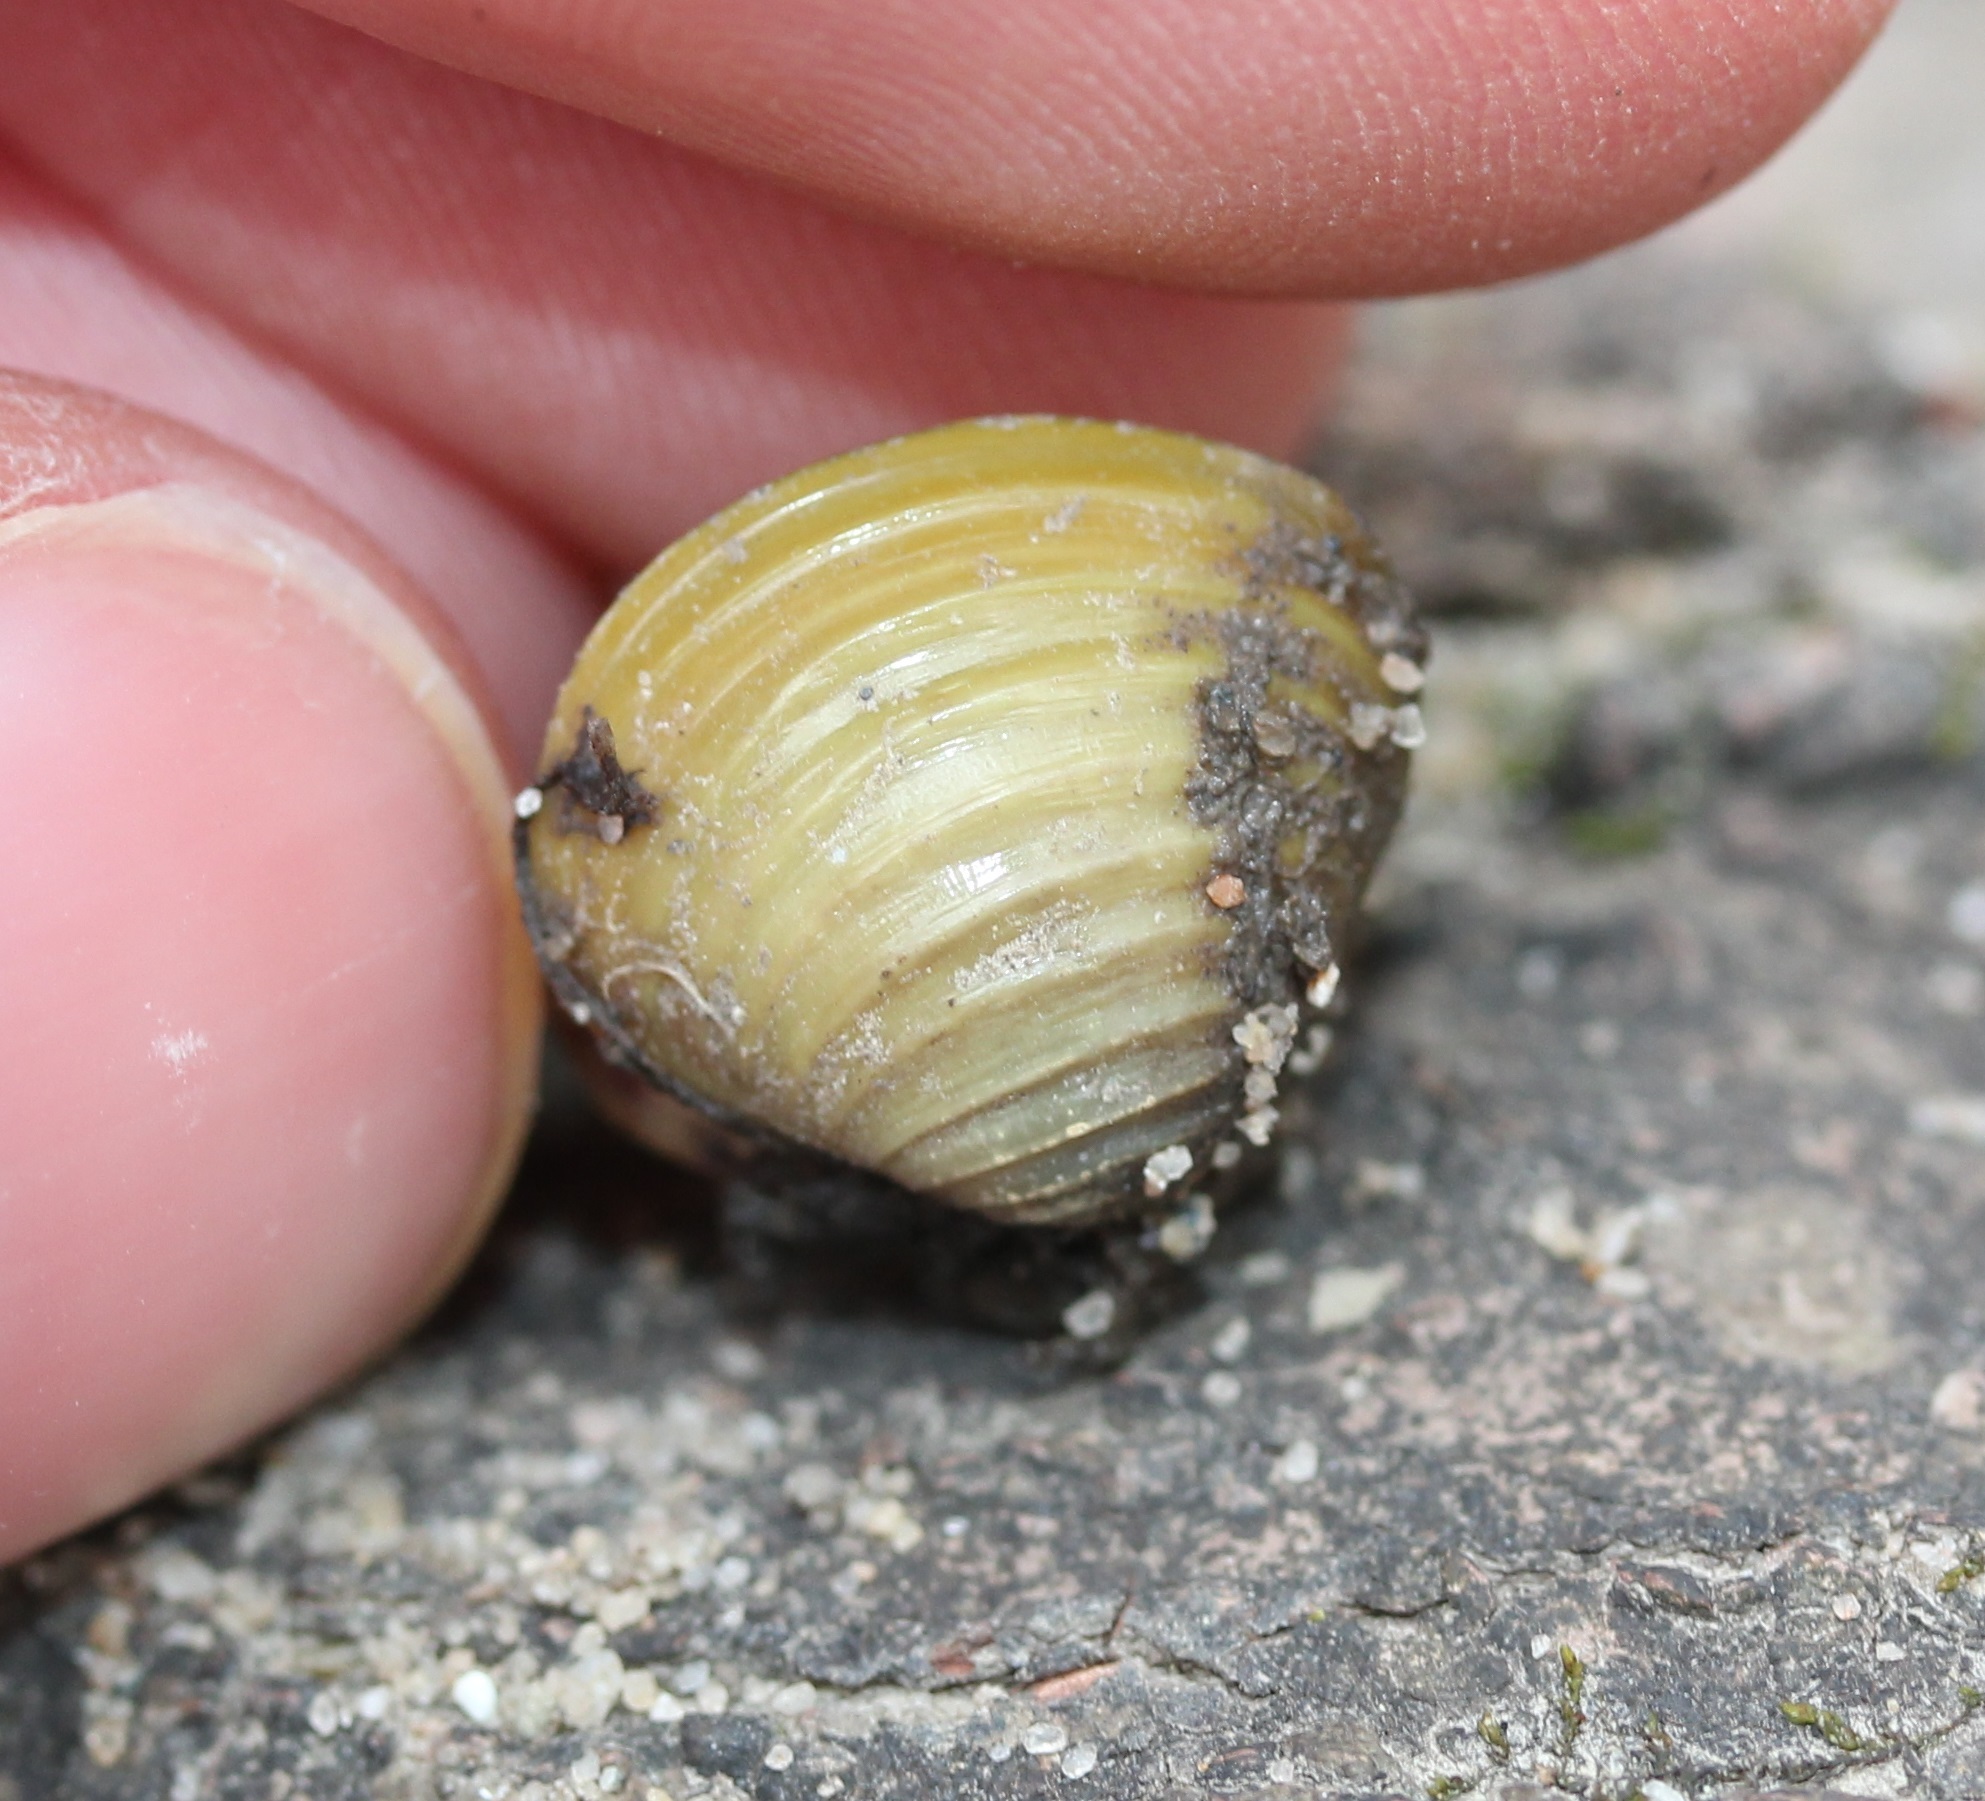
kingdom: Animalia
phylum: Mollusca
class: Bivalvia
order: Venerida
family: Cyrenidae
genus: Corbicula
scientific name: Corbicula fluminea
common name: Asian clam
